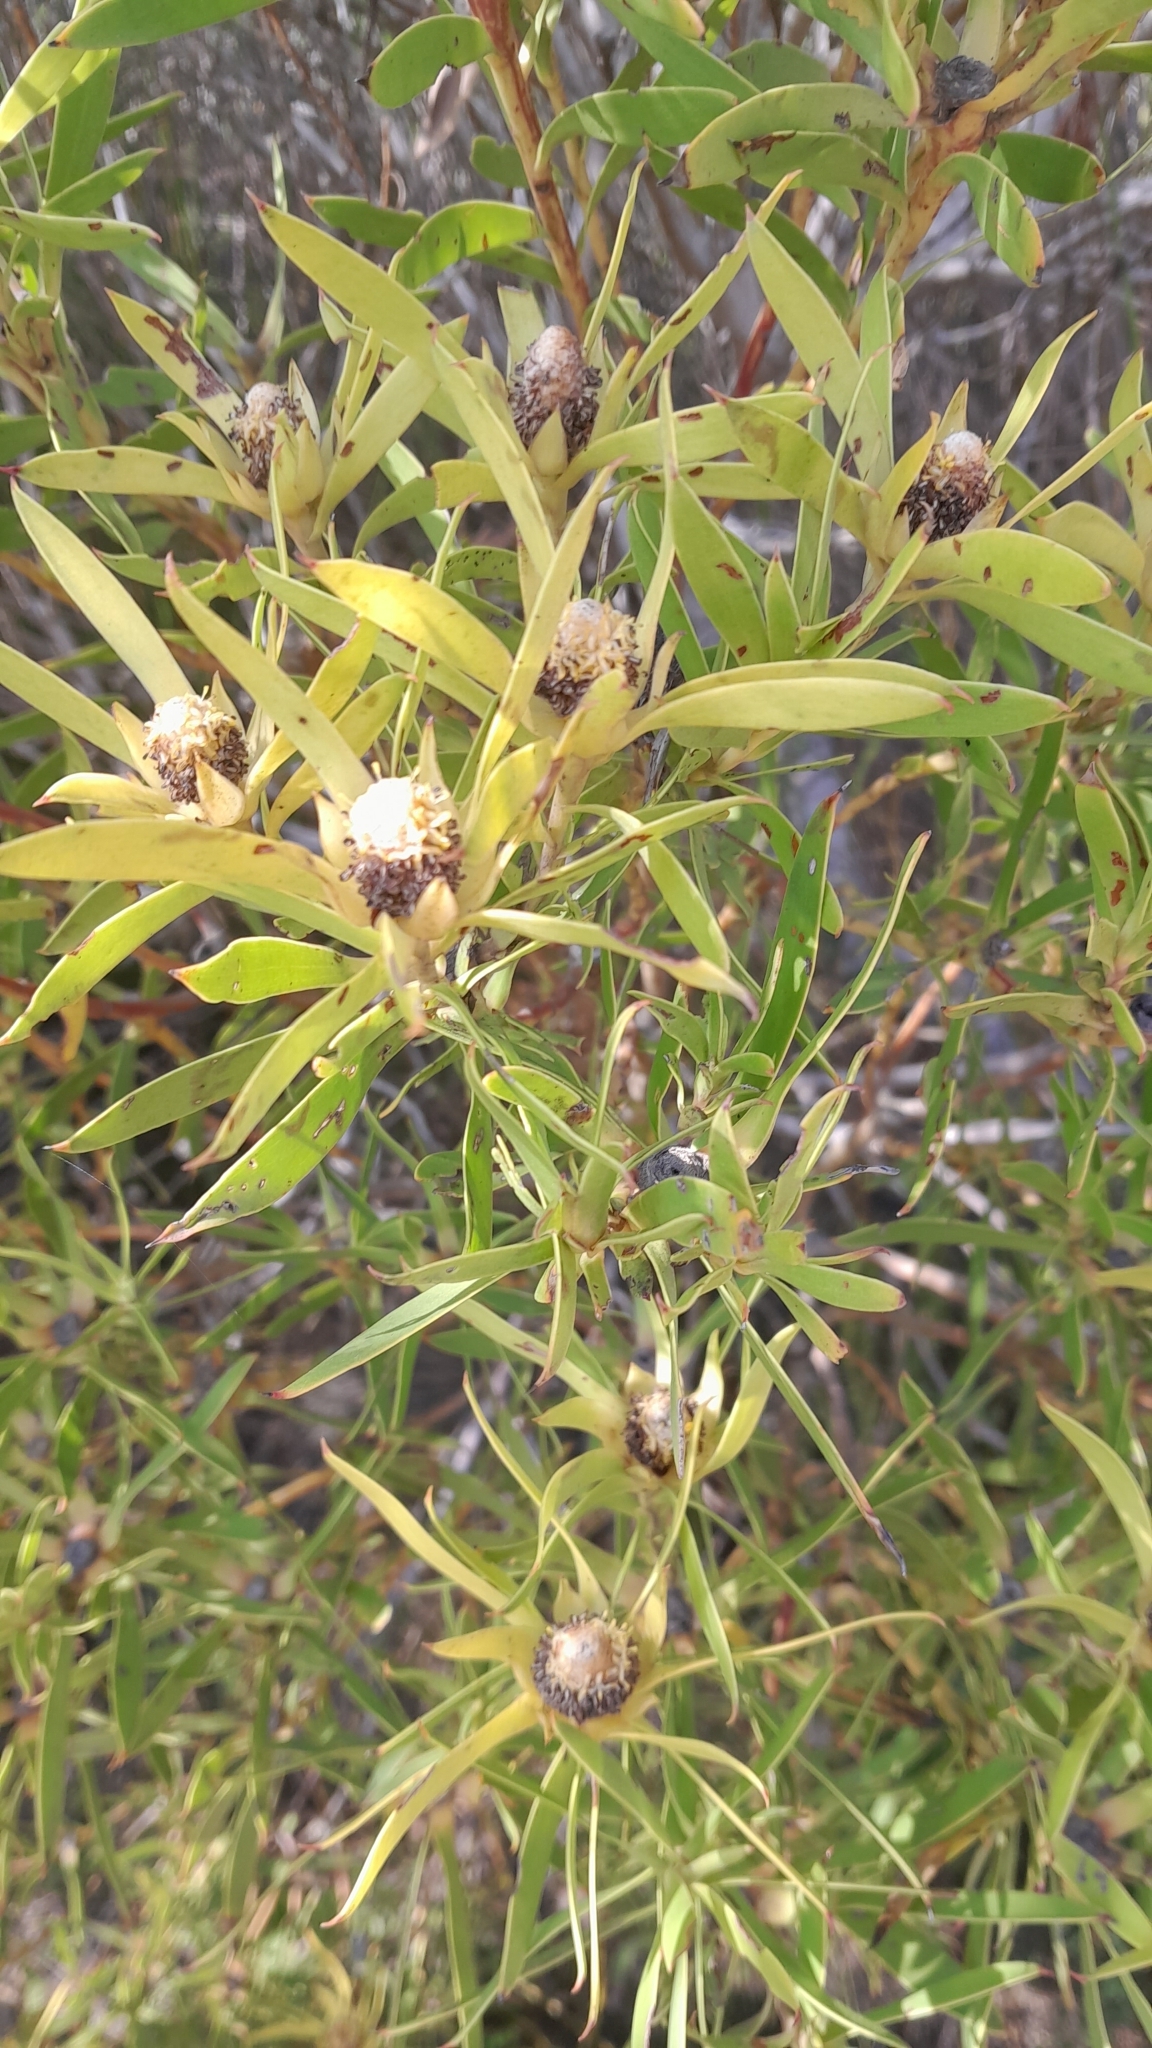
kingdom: Plantae
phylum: Tracheophyta
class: Magnoliopsida
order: Proteales
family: Proteaceae
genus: Leucadendron
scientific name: Leucadendron coniferum
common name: Dune conebush
